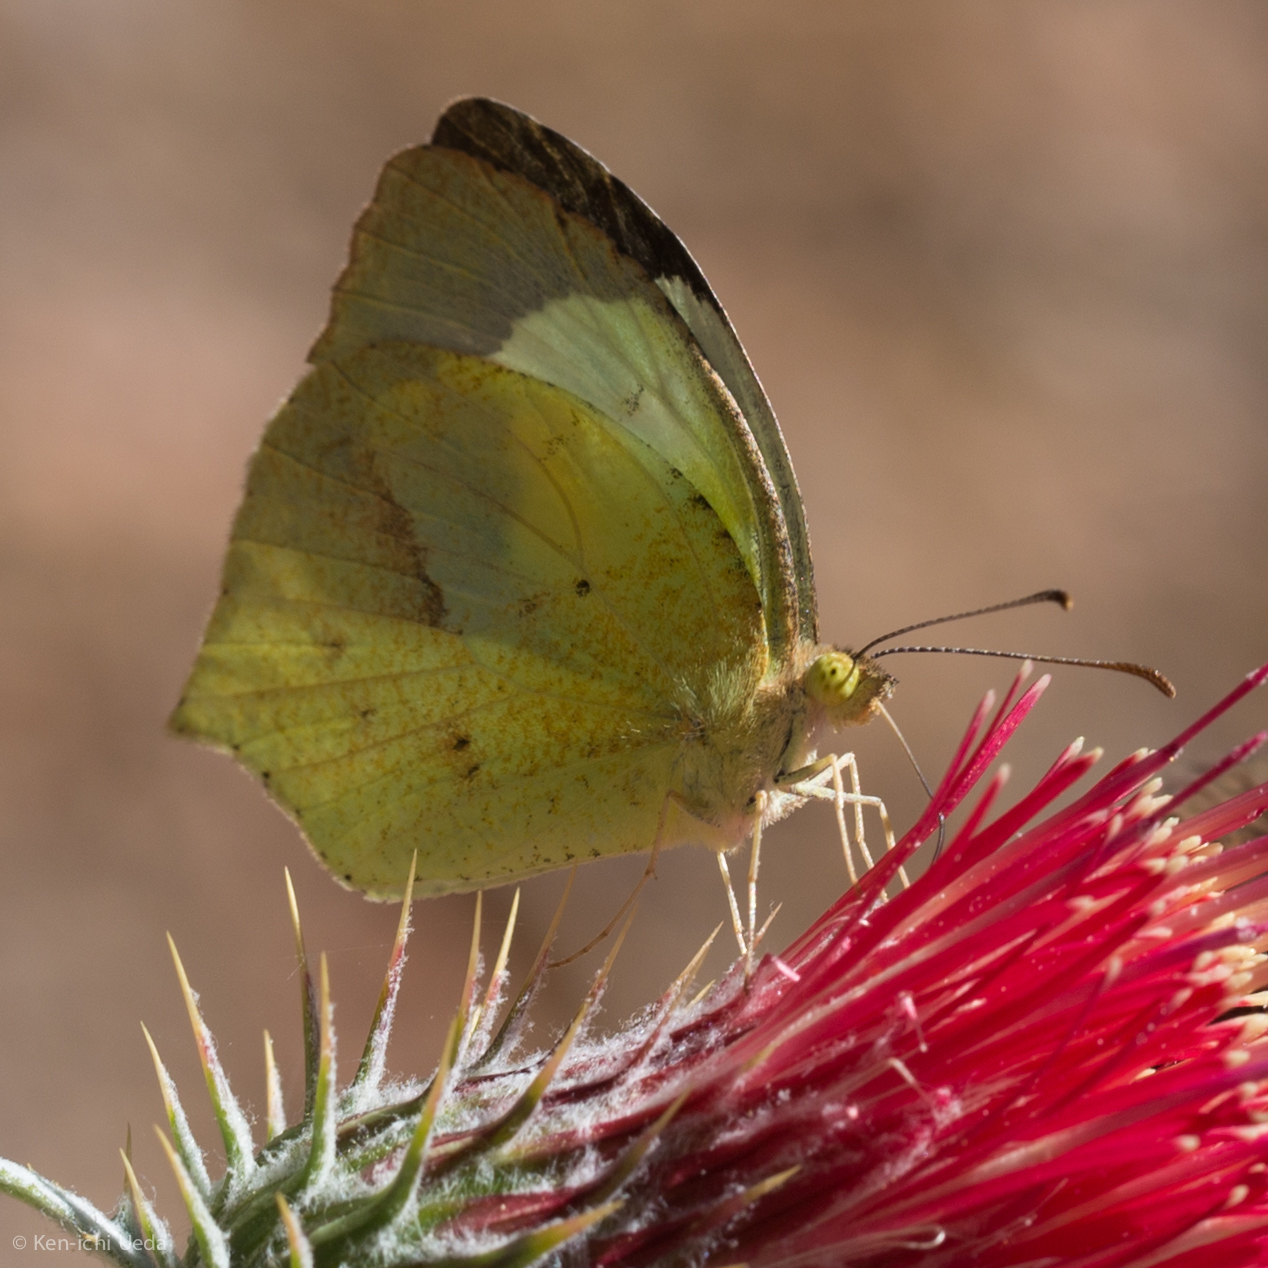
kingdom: Animalia
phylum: Arthropoda
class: Insecta
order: Lepidoptera
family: Pieridae
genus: Abaeis
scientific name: Abaeis mexicana
